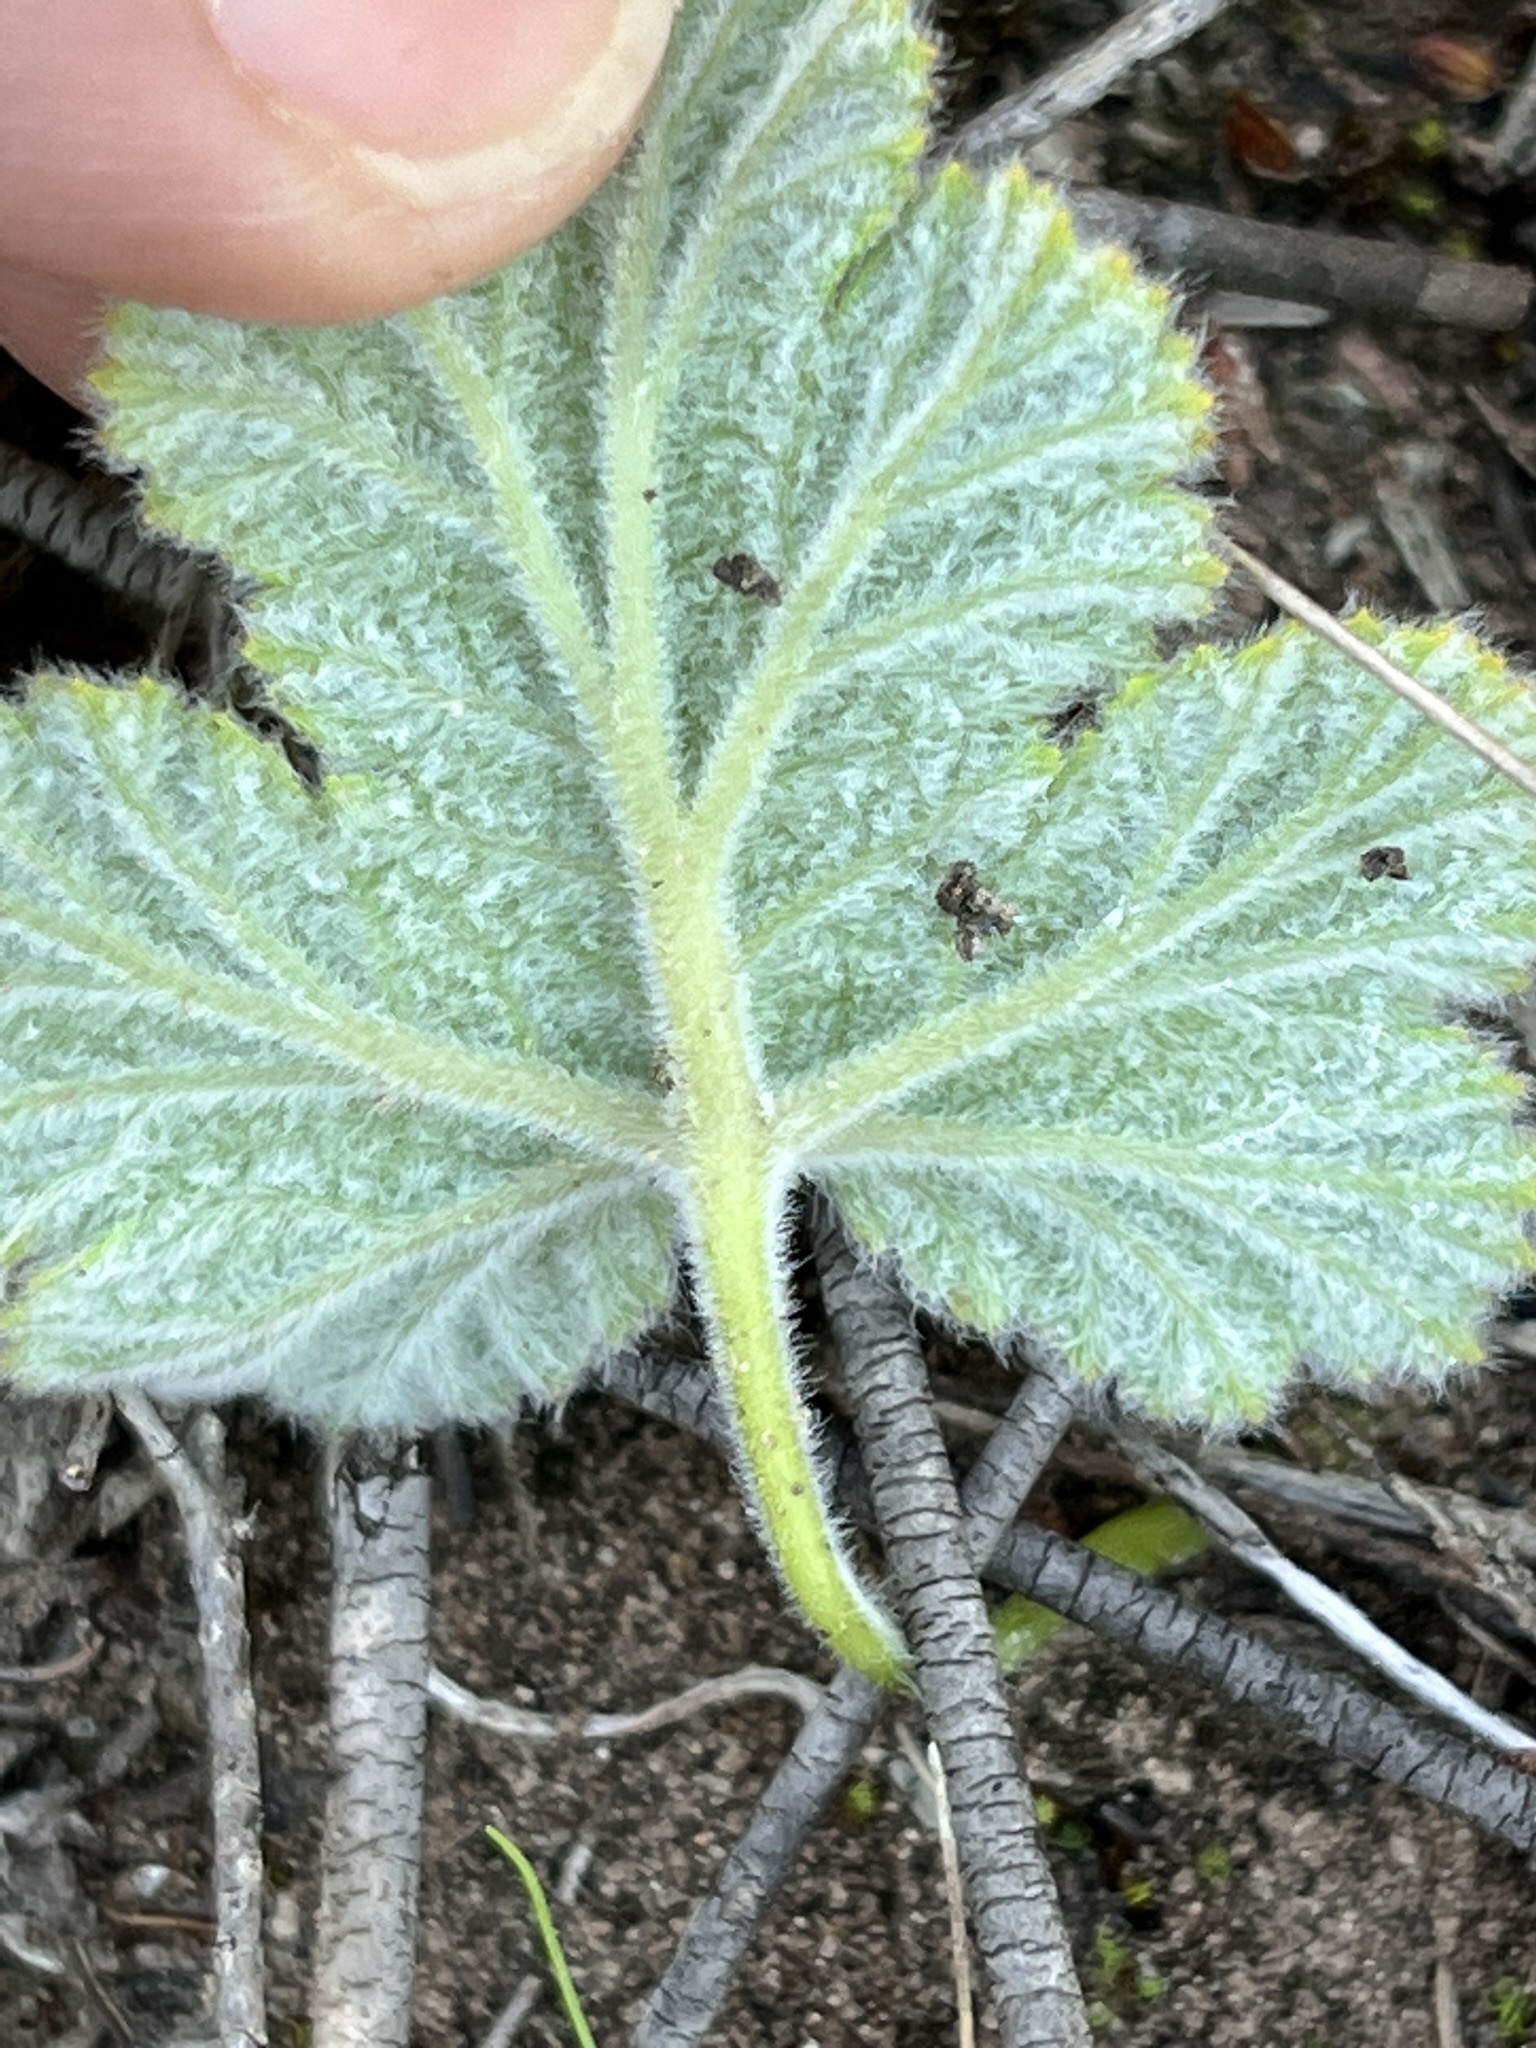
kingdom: Plantae
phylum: Tracheophyta
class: Magnoliopsida
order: Geraniales
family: Geraniaceae
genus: Pelargonium
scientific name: Pelargonium lobatum
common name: Vine-leaf pelargonium
